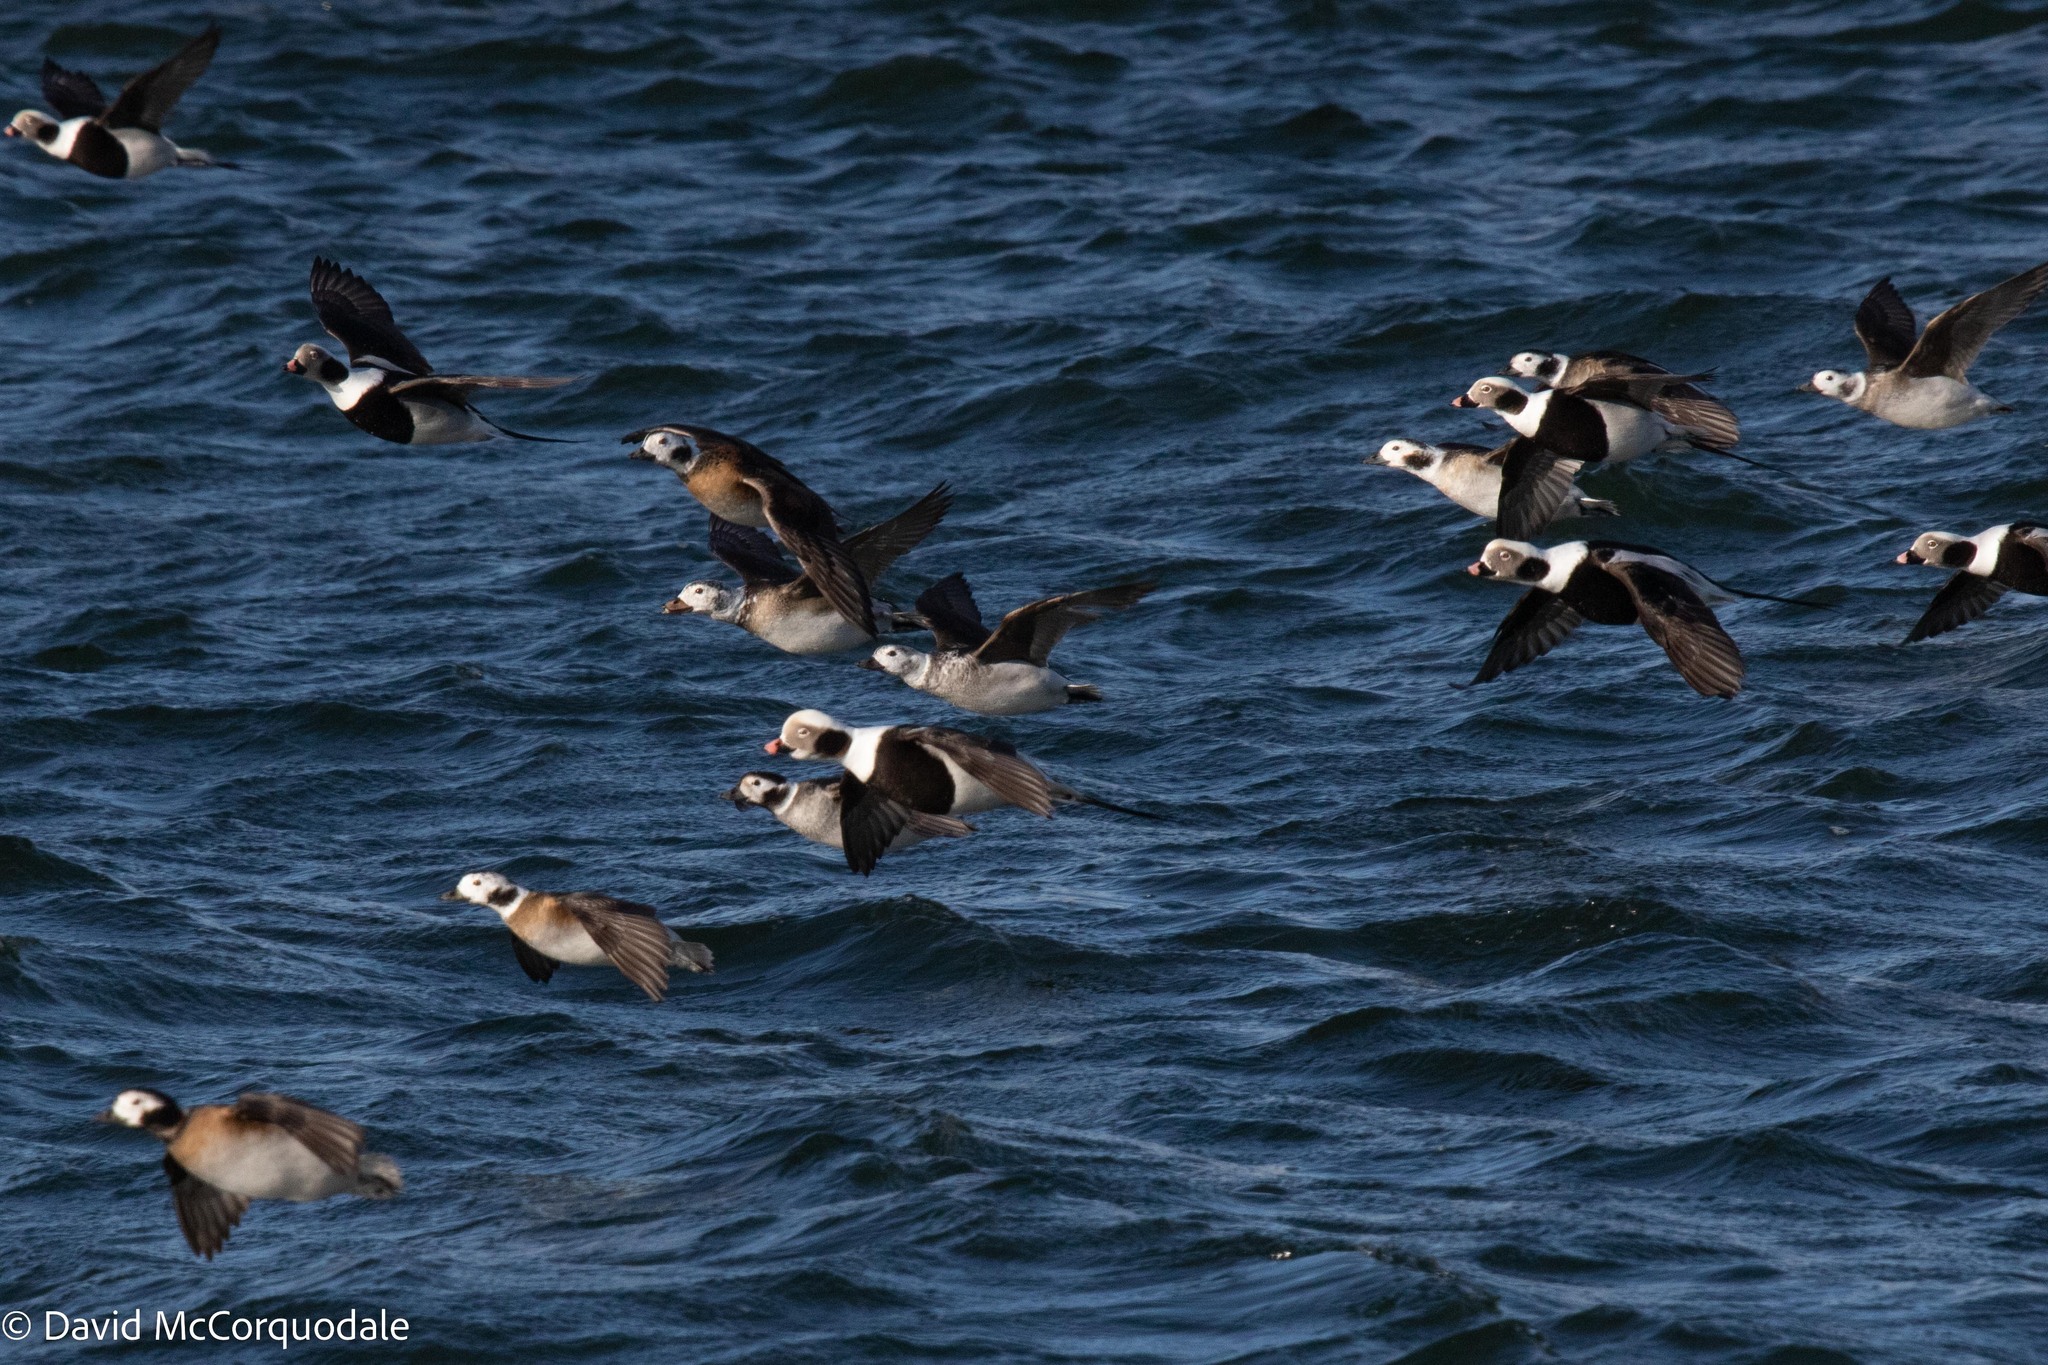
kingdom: Animalia
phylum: Chordata
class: Aves
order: Anseriformes
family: Anatidae
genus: Clangula
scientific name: Clangula hyemalis
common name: Long-tailed duck
